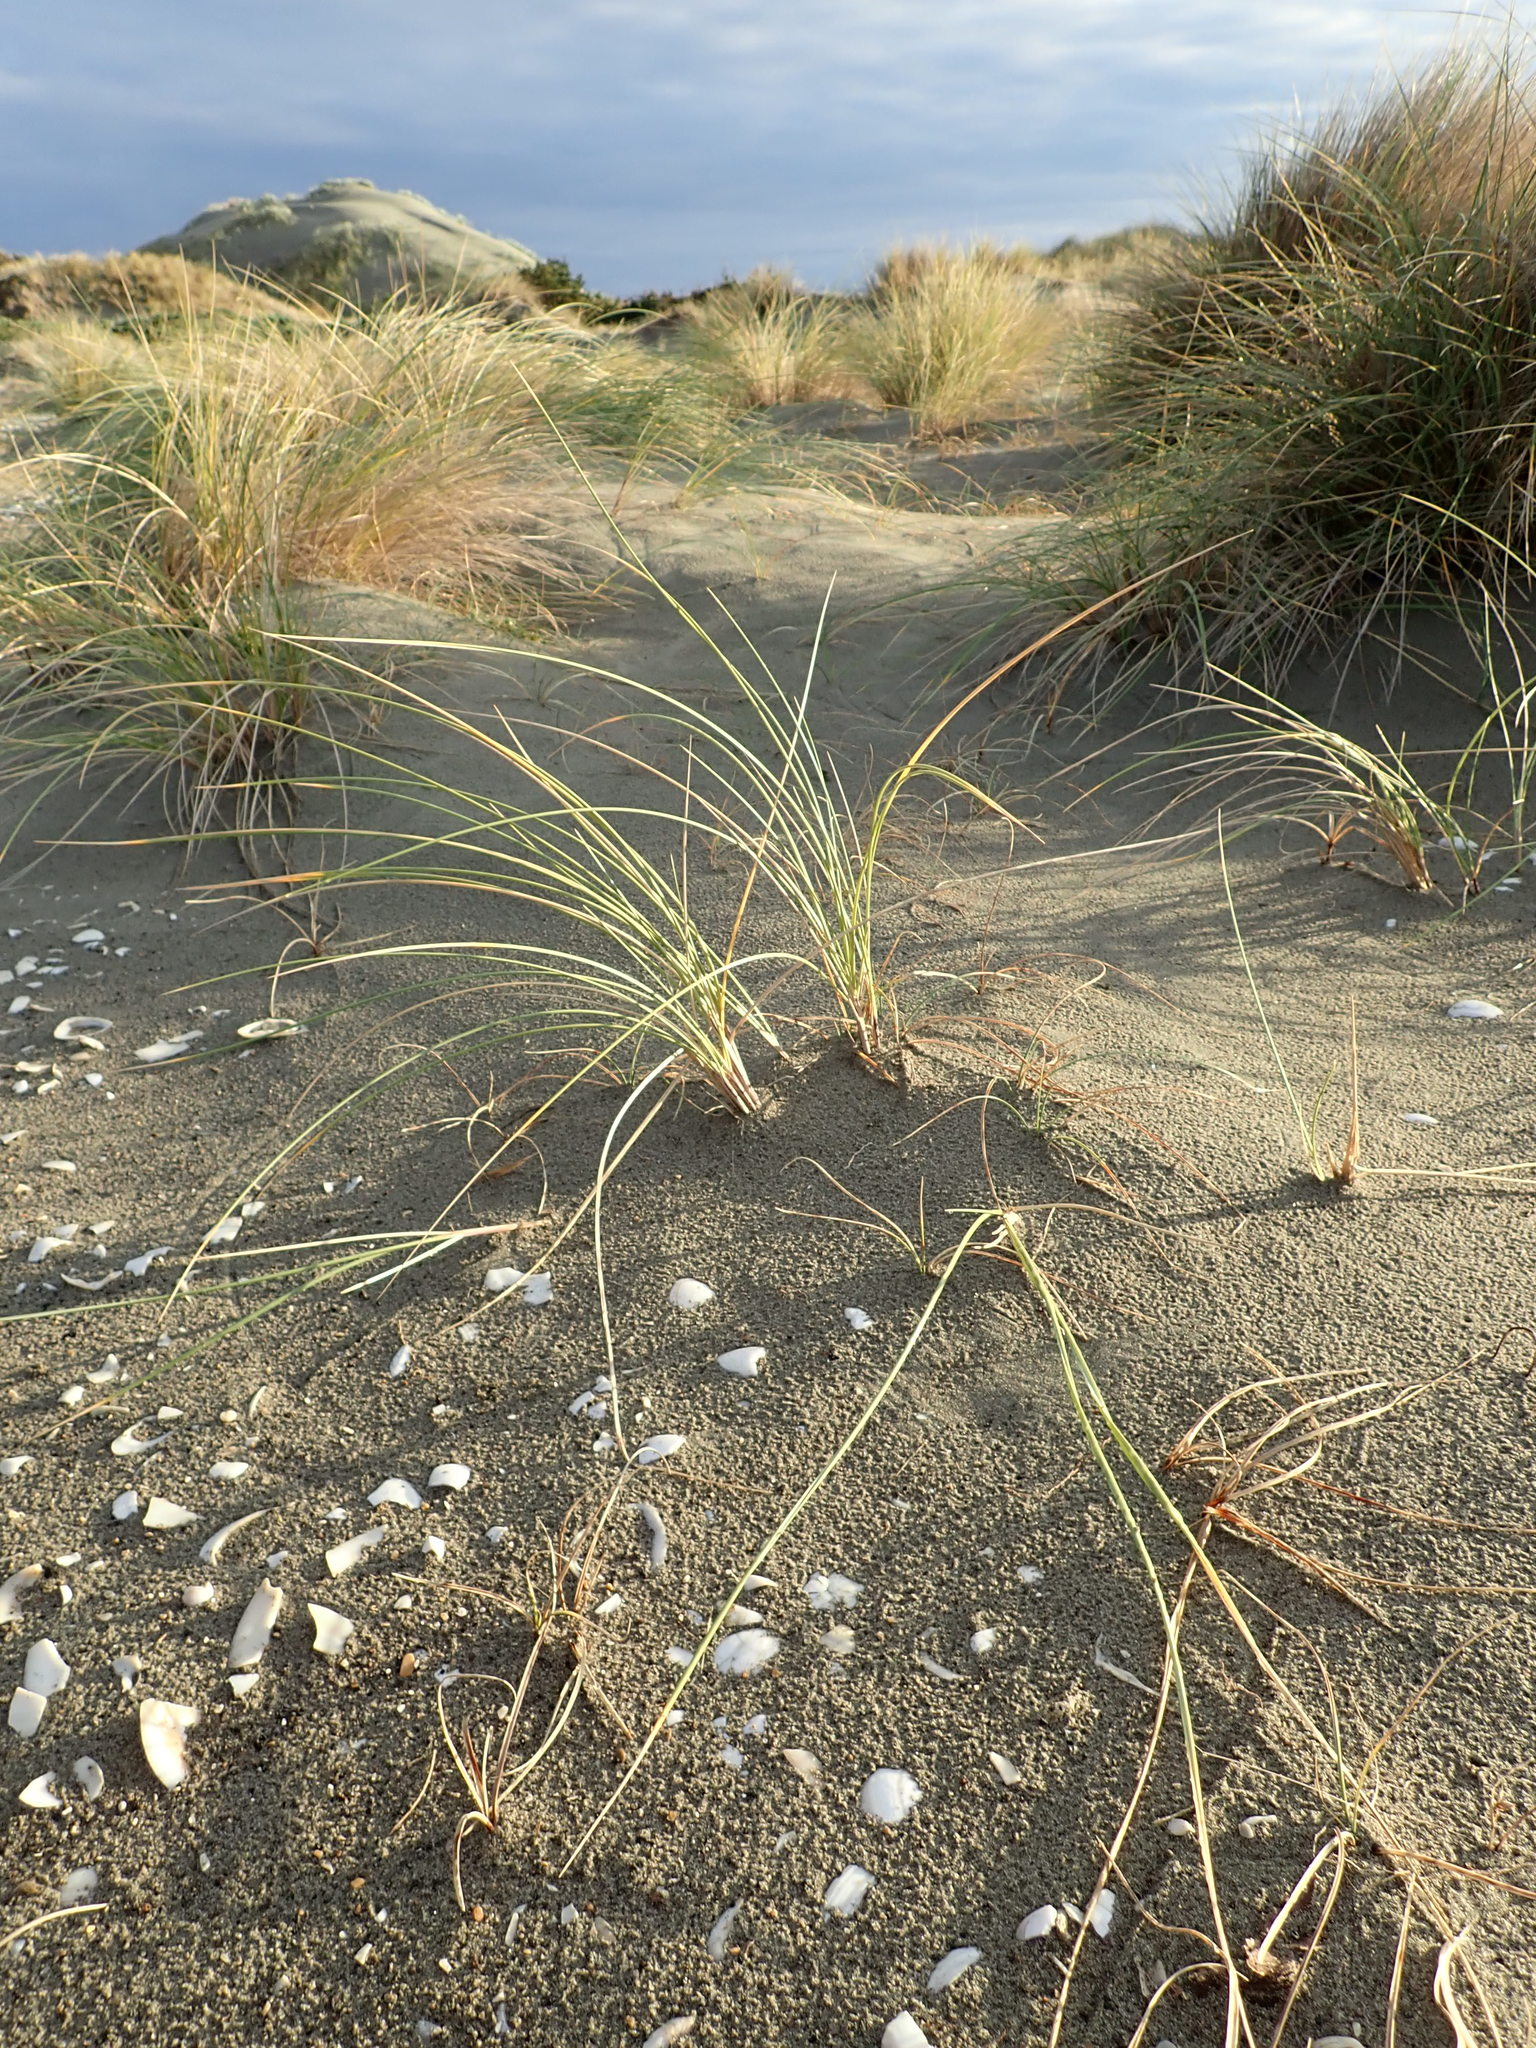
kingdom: Plantae
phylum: Tracheophyta
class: Liliopsida
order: Poales
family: Poaceae
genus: Calamagrostis
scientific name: Calamagrostis arenaria
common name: European beachgrass
